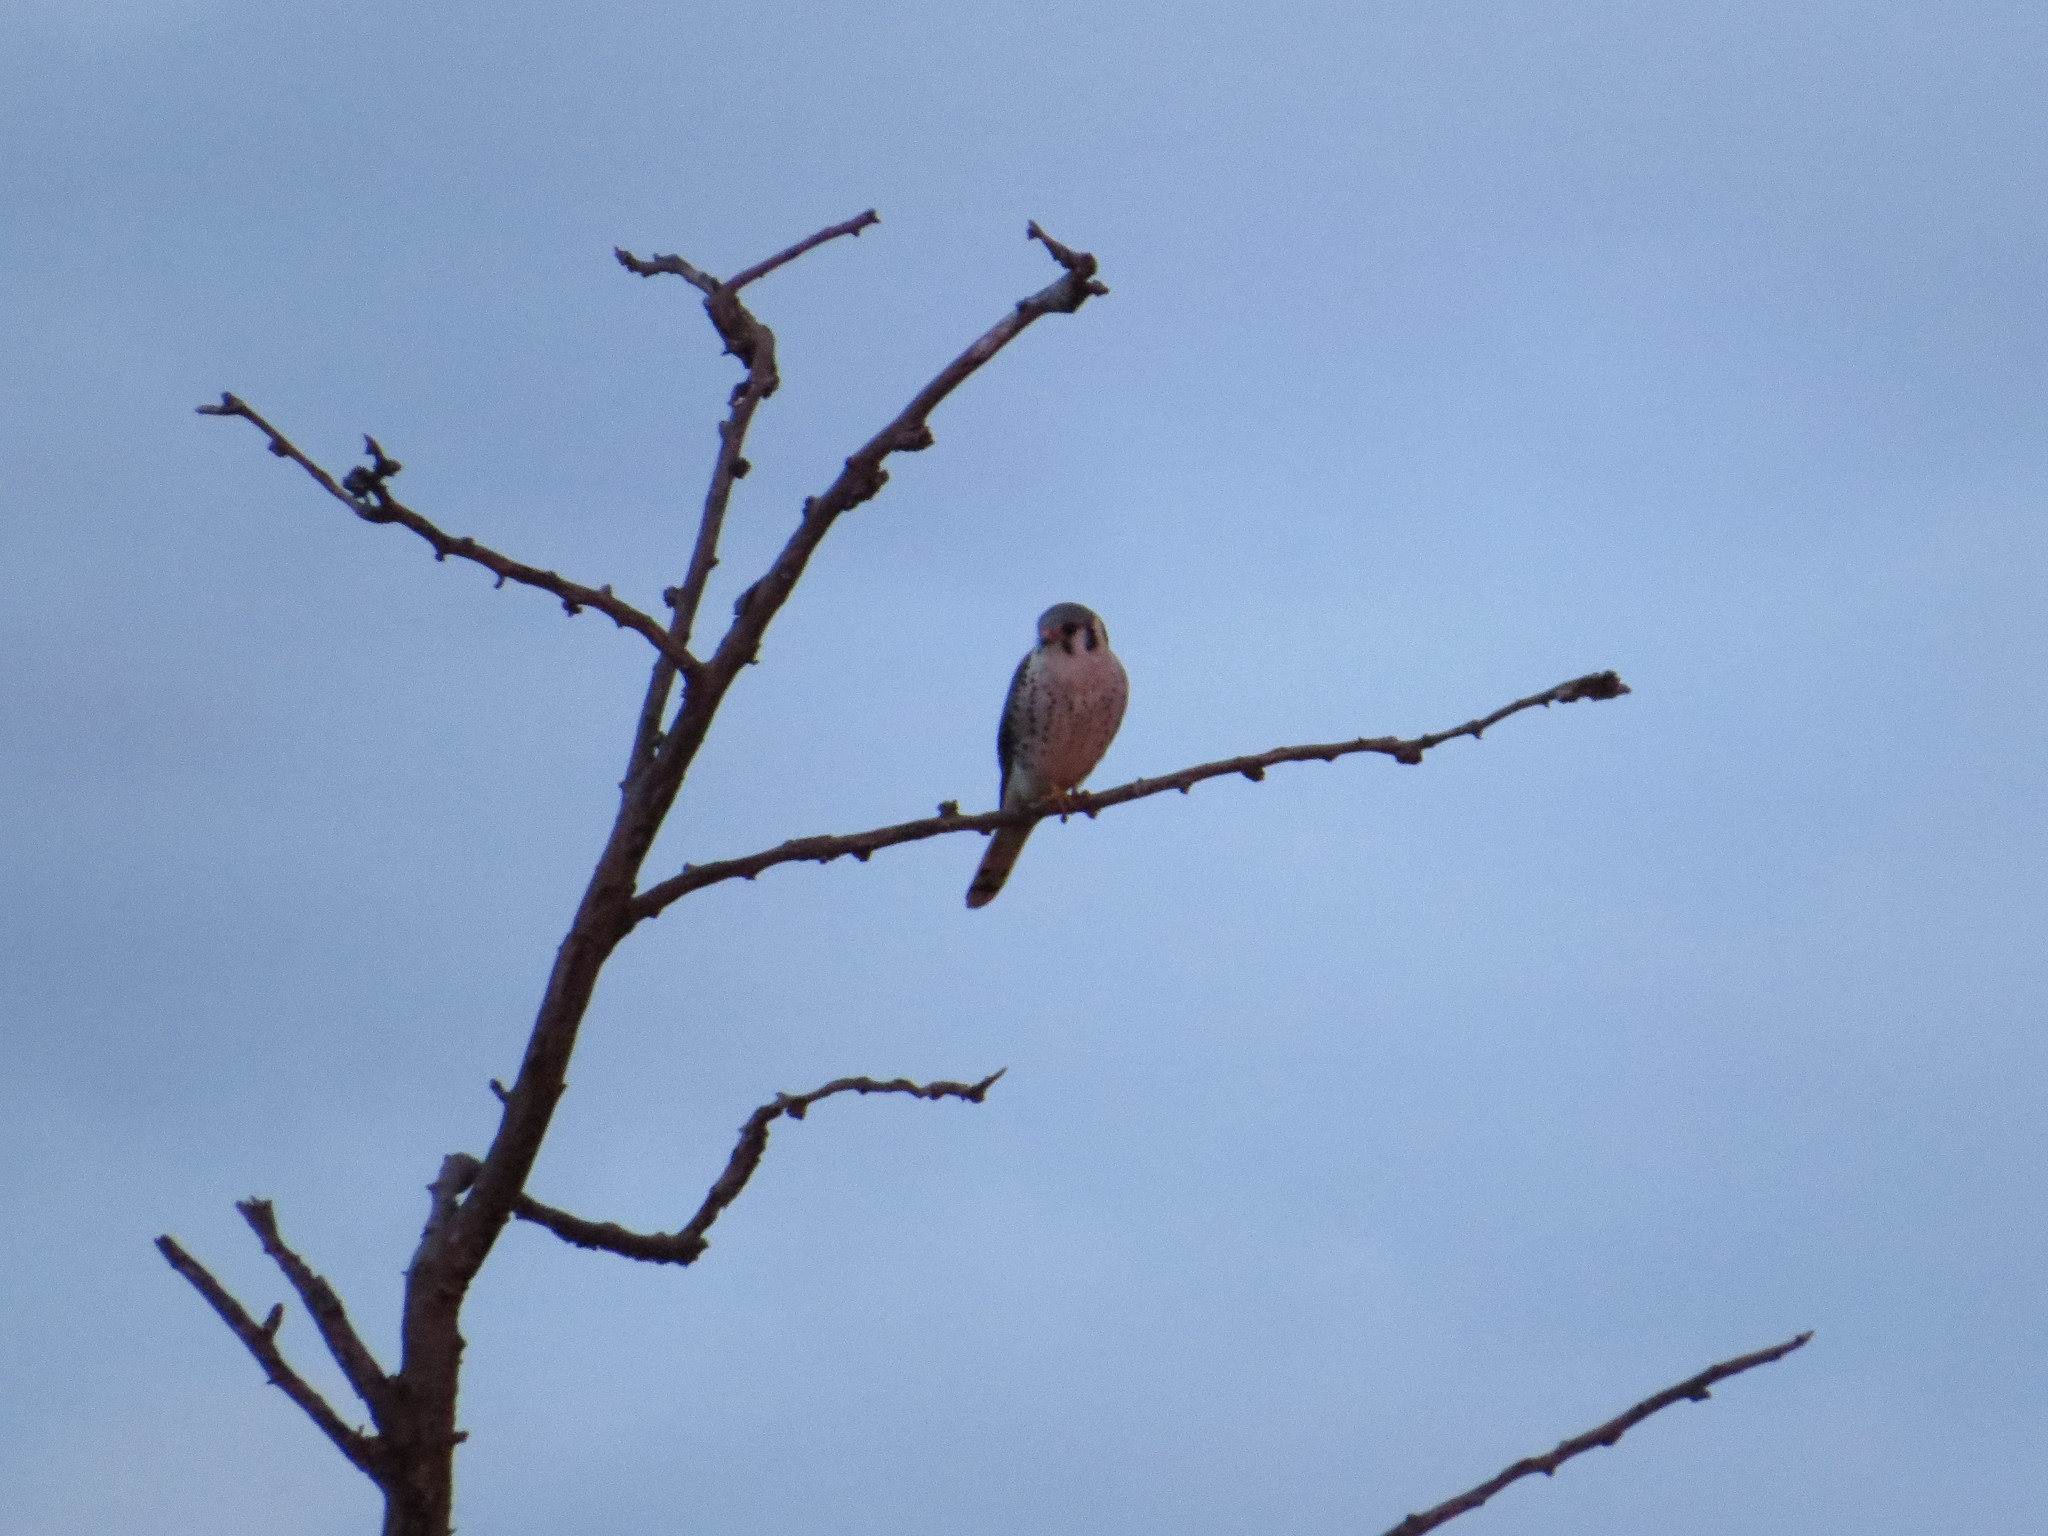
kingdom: Animalia
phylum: Chordata
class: Aves
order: Falconiformes
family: Falconidae
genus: Falco
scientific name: Falco sparverius
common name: American kestrel
